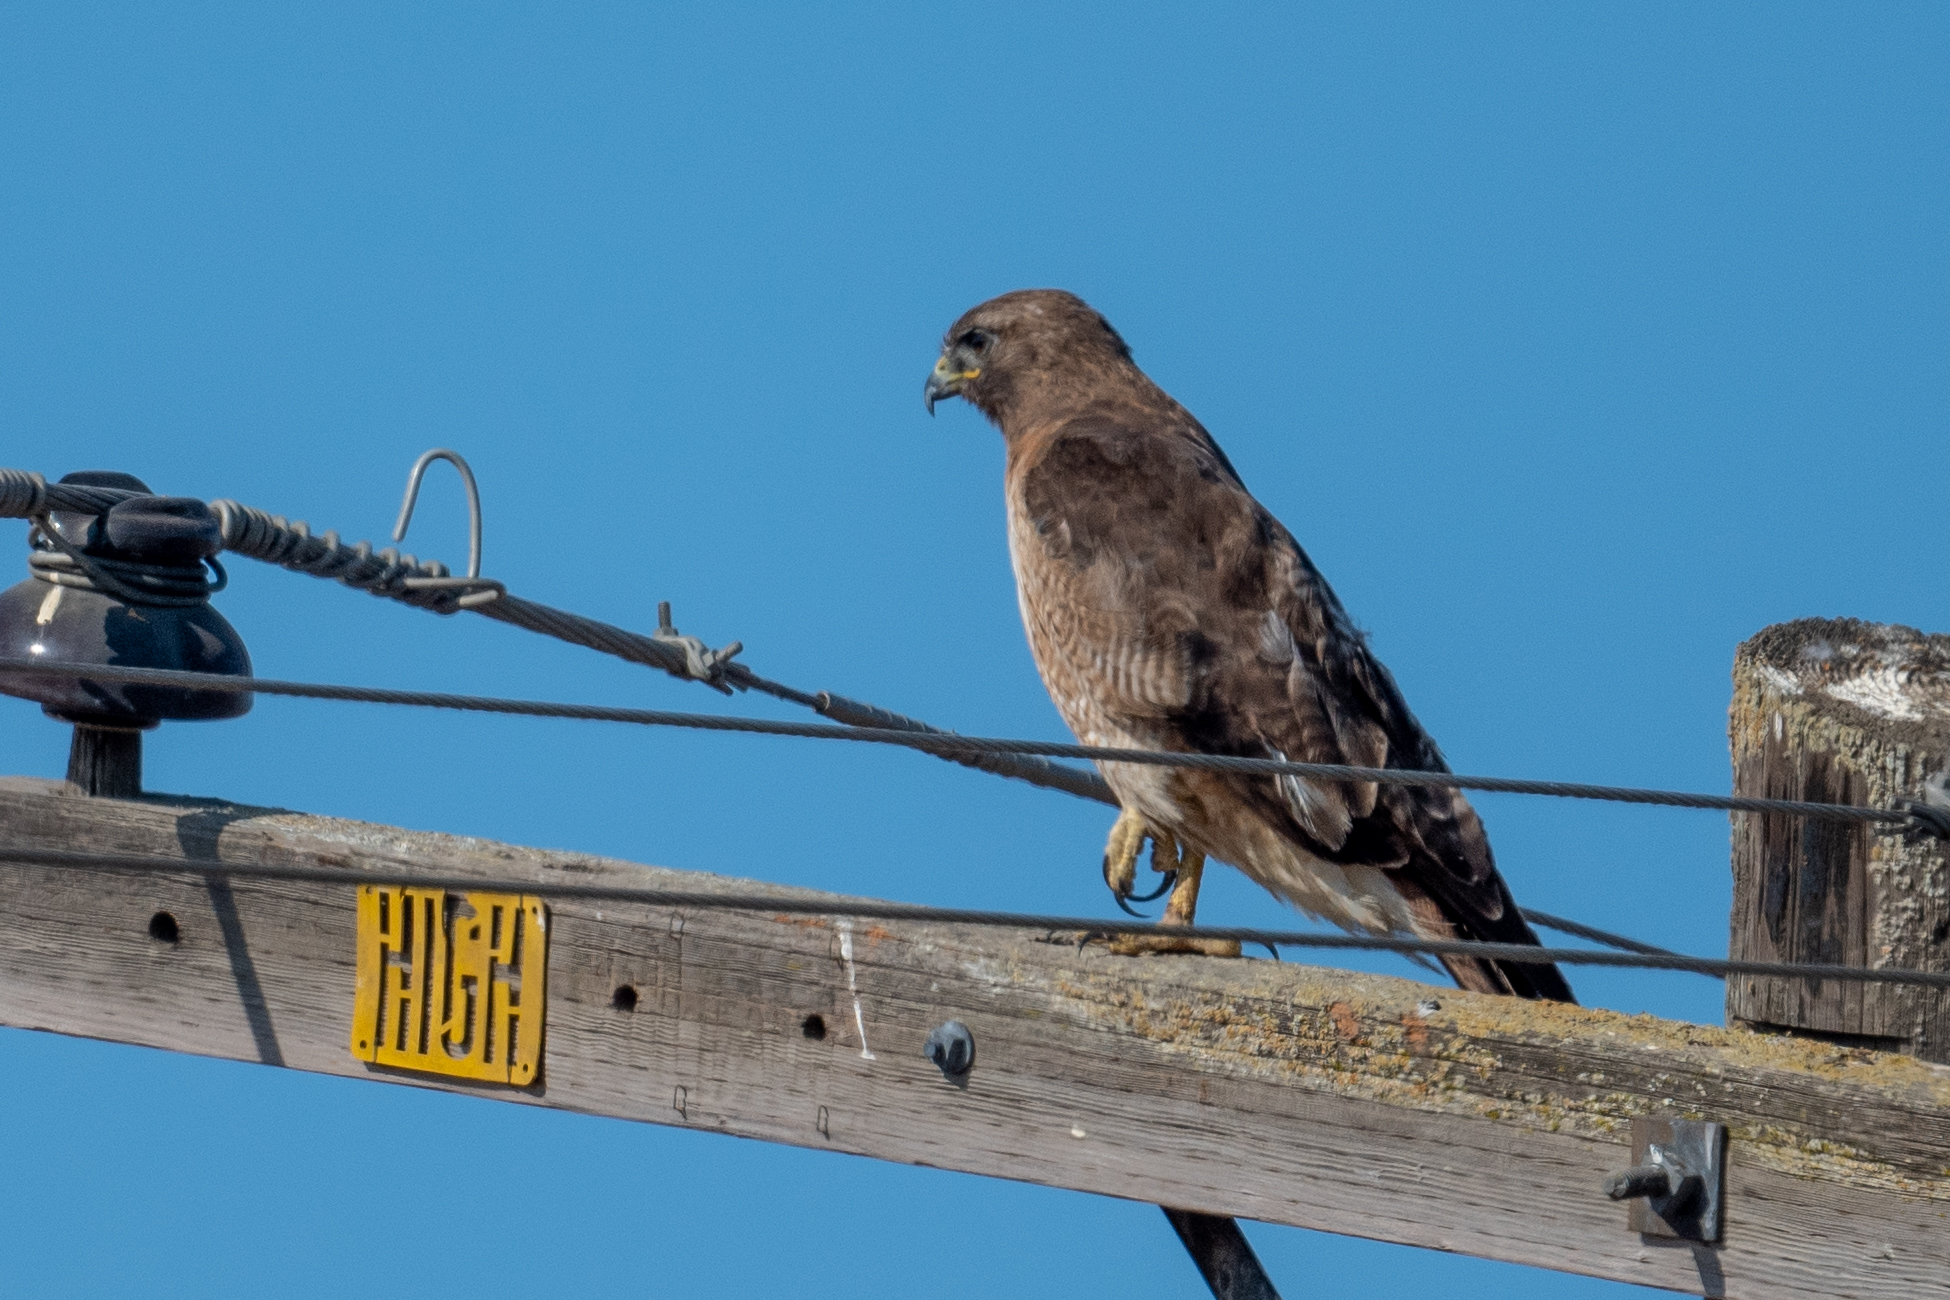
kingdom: Animalia
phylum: Chordata
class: Aves
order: Accipitriformes
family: Accipitridae
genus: Buteo
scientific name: Buteo swainsoni
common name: Swainson's hawk
